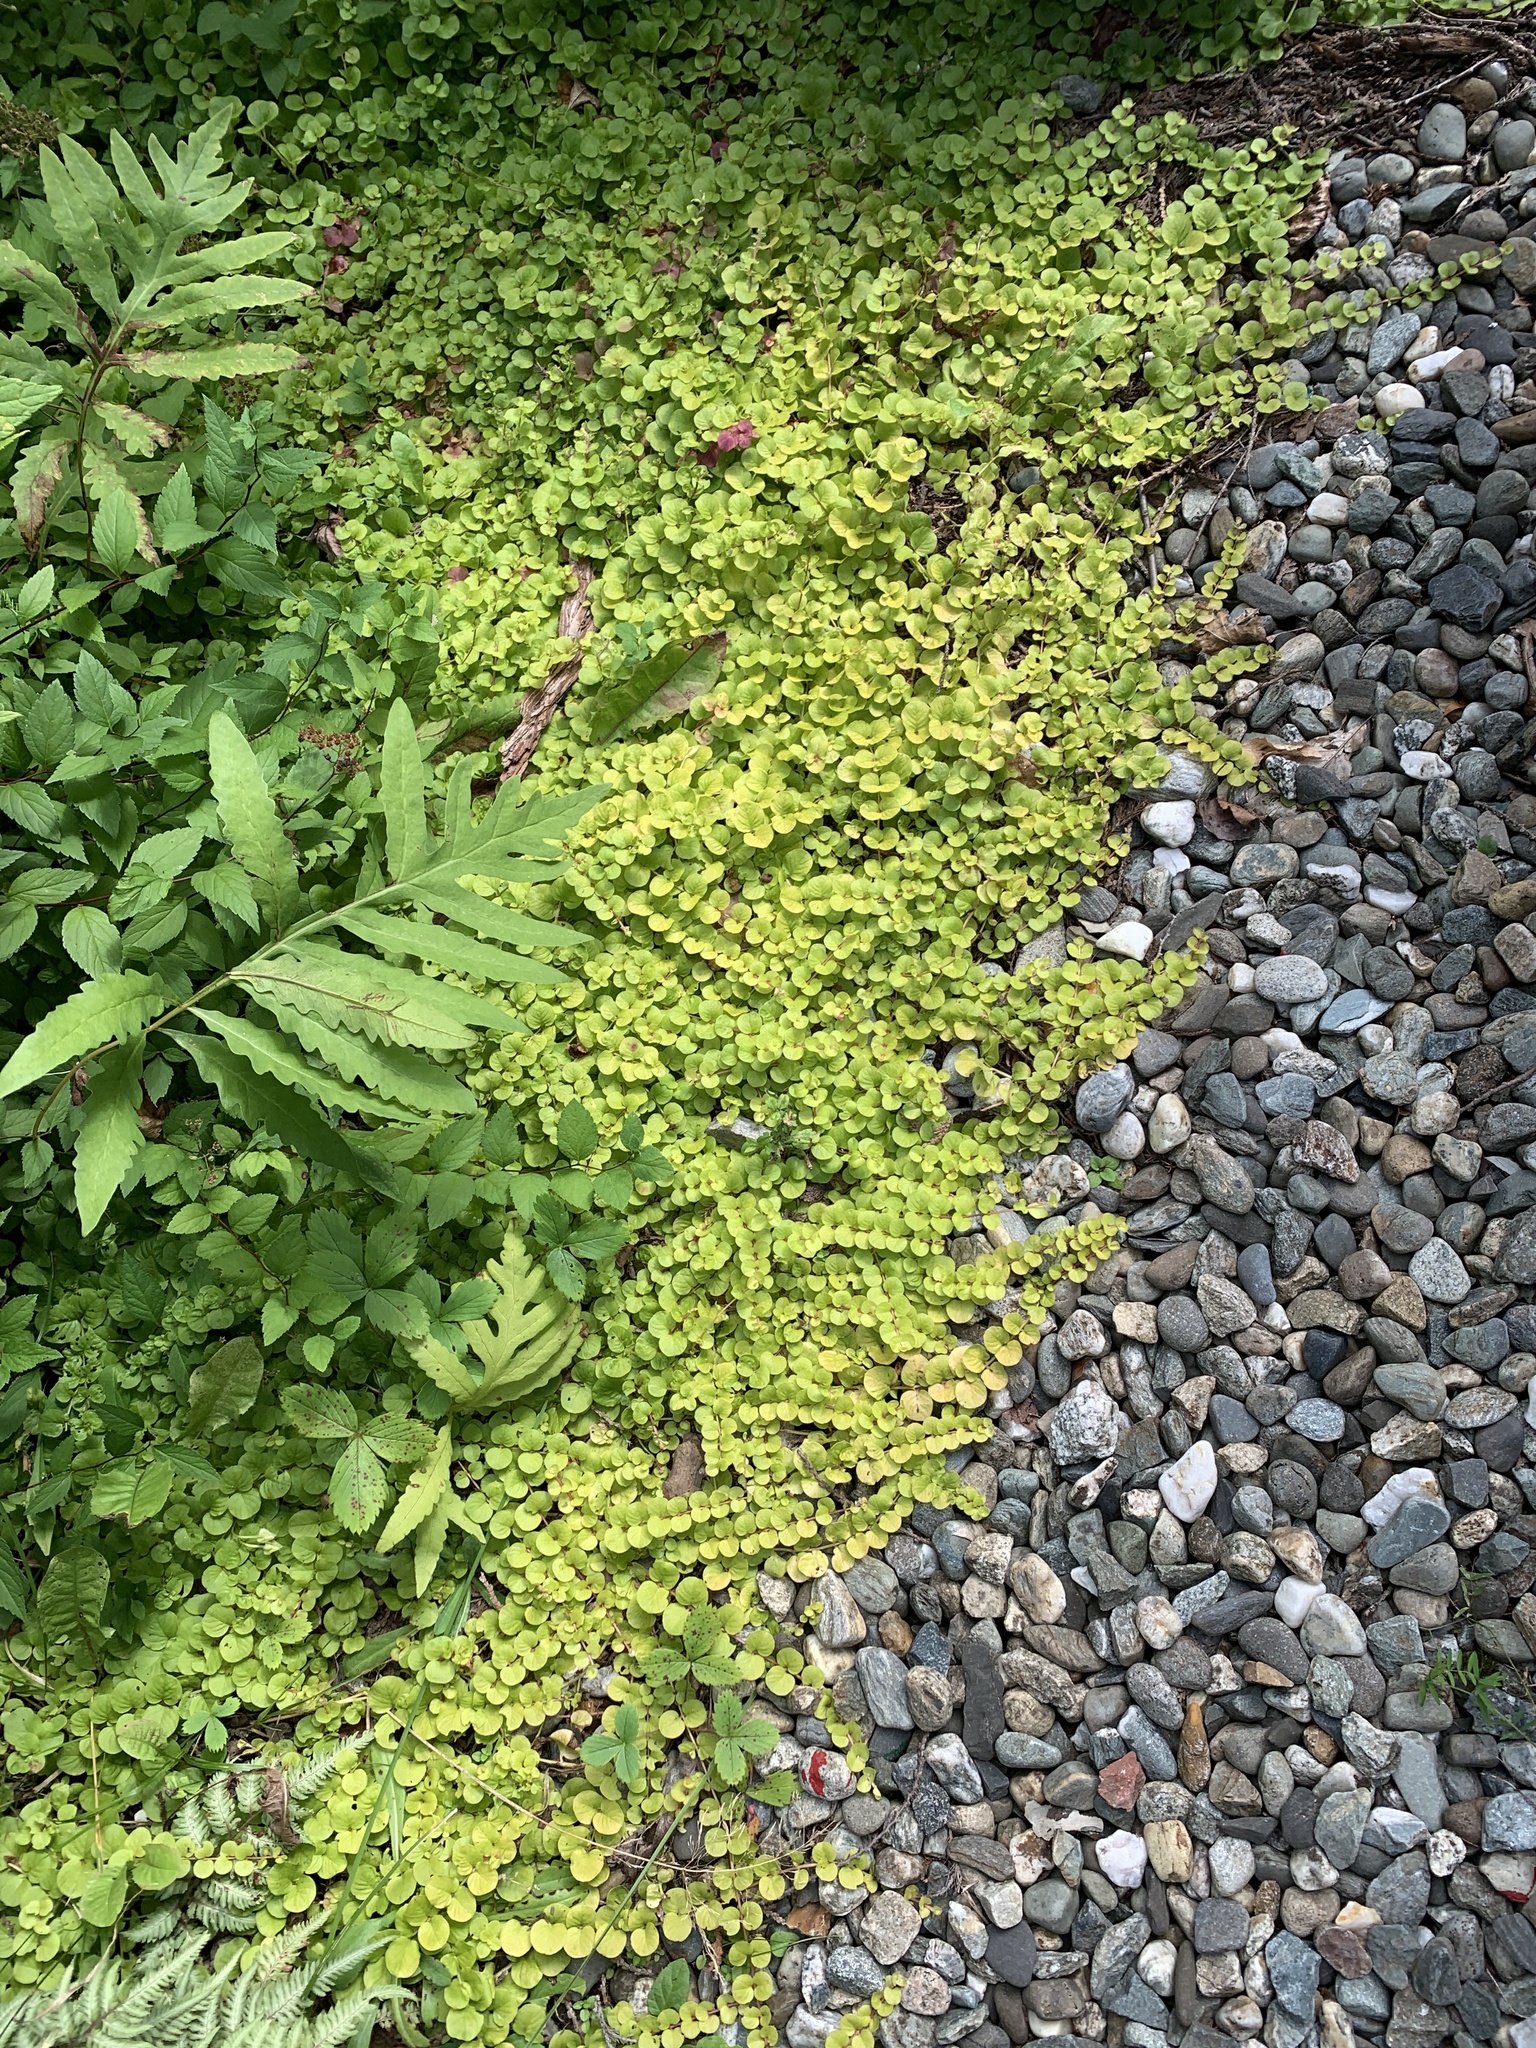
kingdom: Plantae
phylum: Tracheophyta
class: Magnoliopsida
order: Ericales
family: Primulaceae
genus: Lysimachia
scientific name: Lysimachia nummularia
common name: Moneywort
